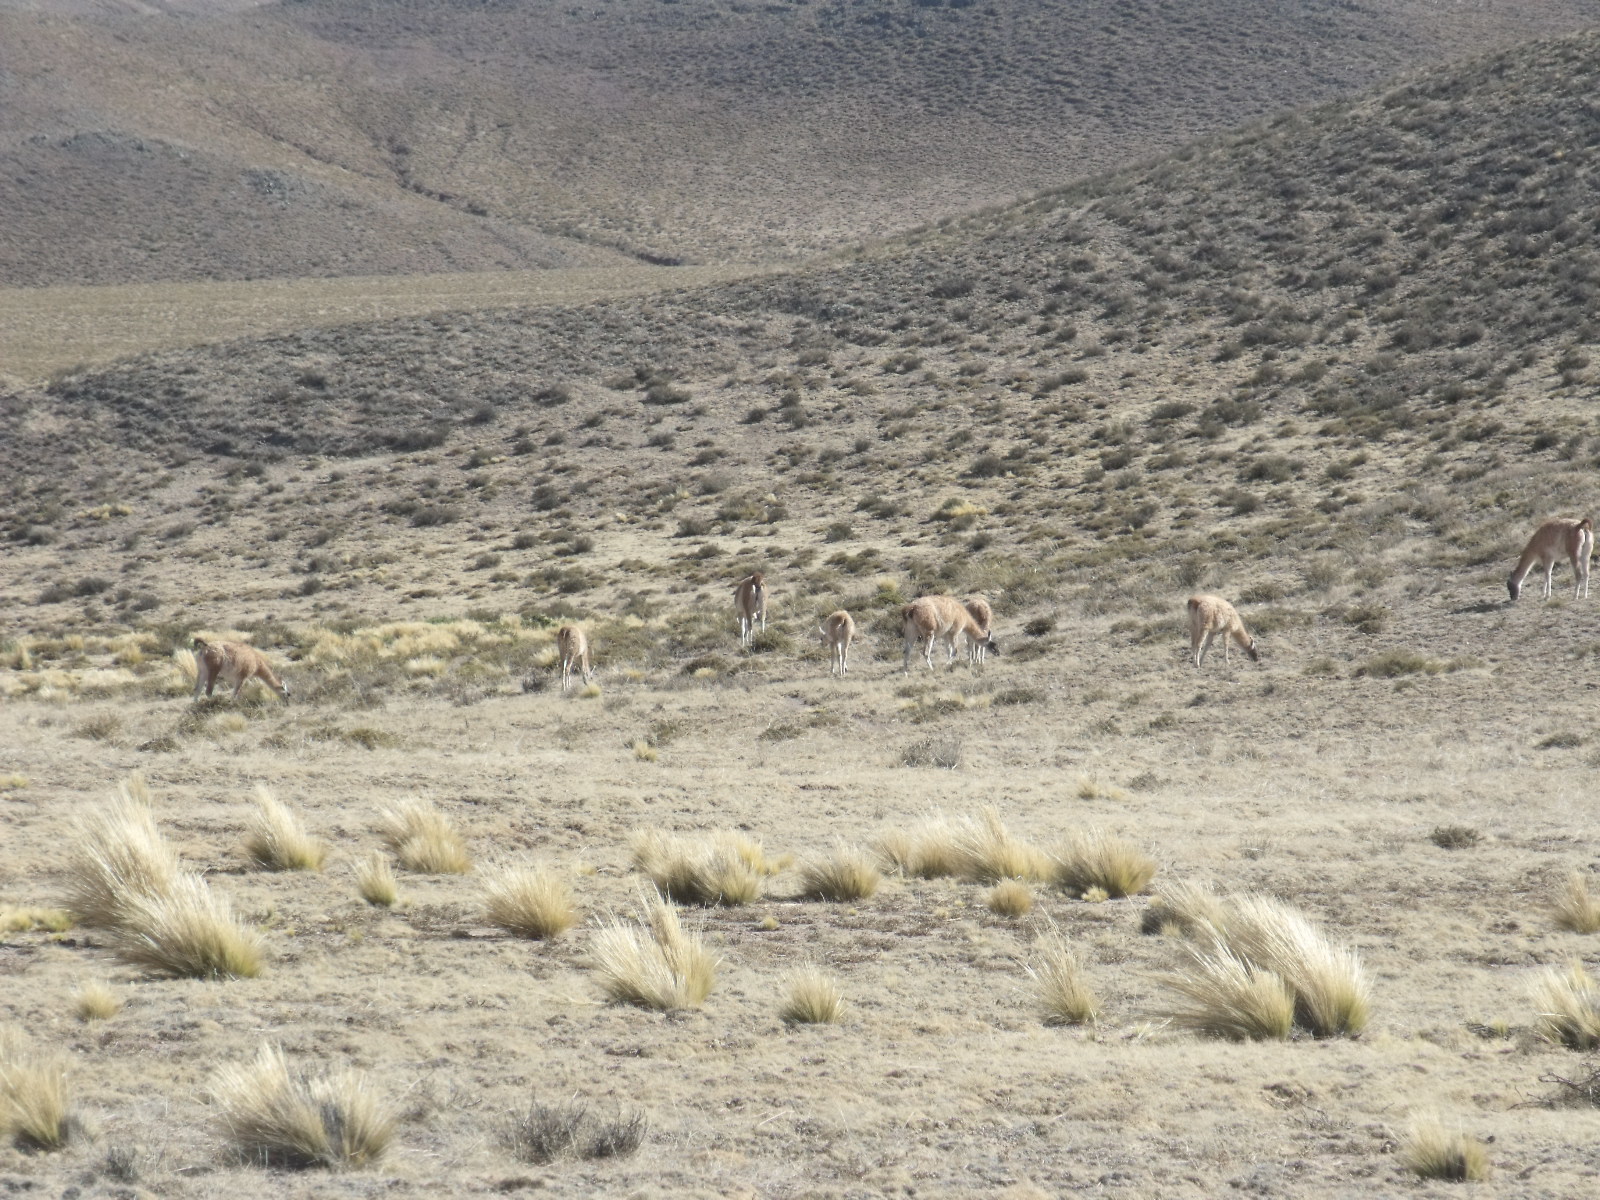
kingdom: Animalia
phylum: Chordata
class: Mammalia
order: Artiodactyla
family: Camelidae
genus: Lama
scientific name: Lama glama
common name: Llama
